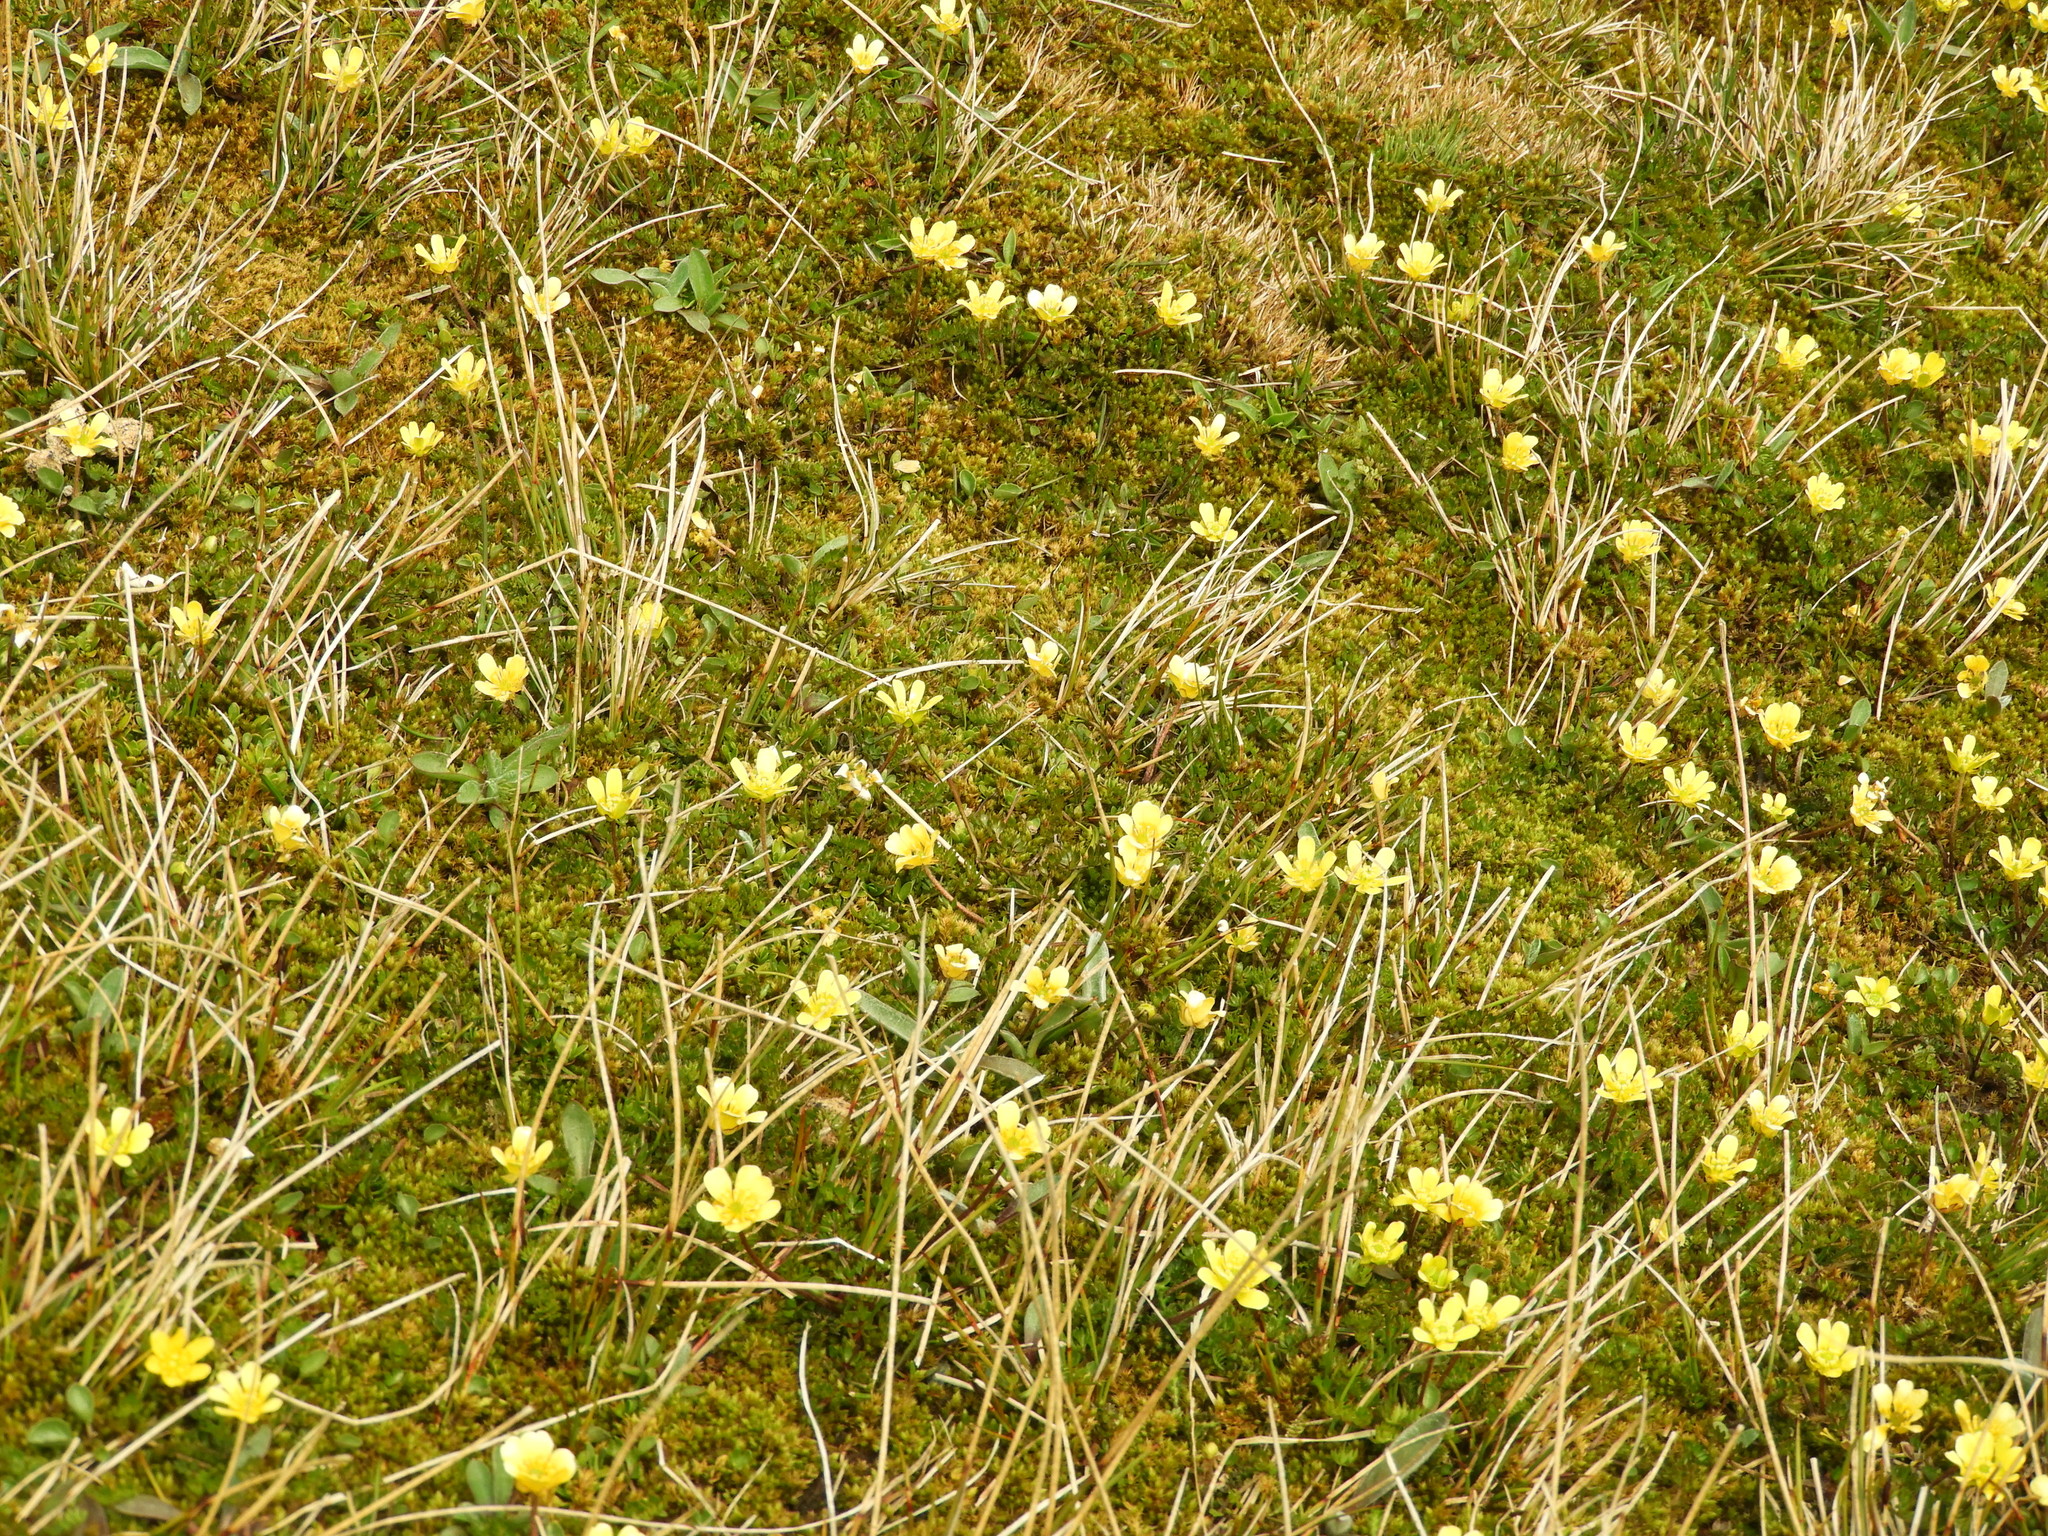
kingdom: Plantae
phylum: Tracheophyta
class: Magnoliopsida
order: Ranunculales
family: Ranunculaceae
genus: Ranunculus
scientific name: Ranunculus gracilipes
